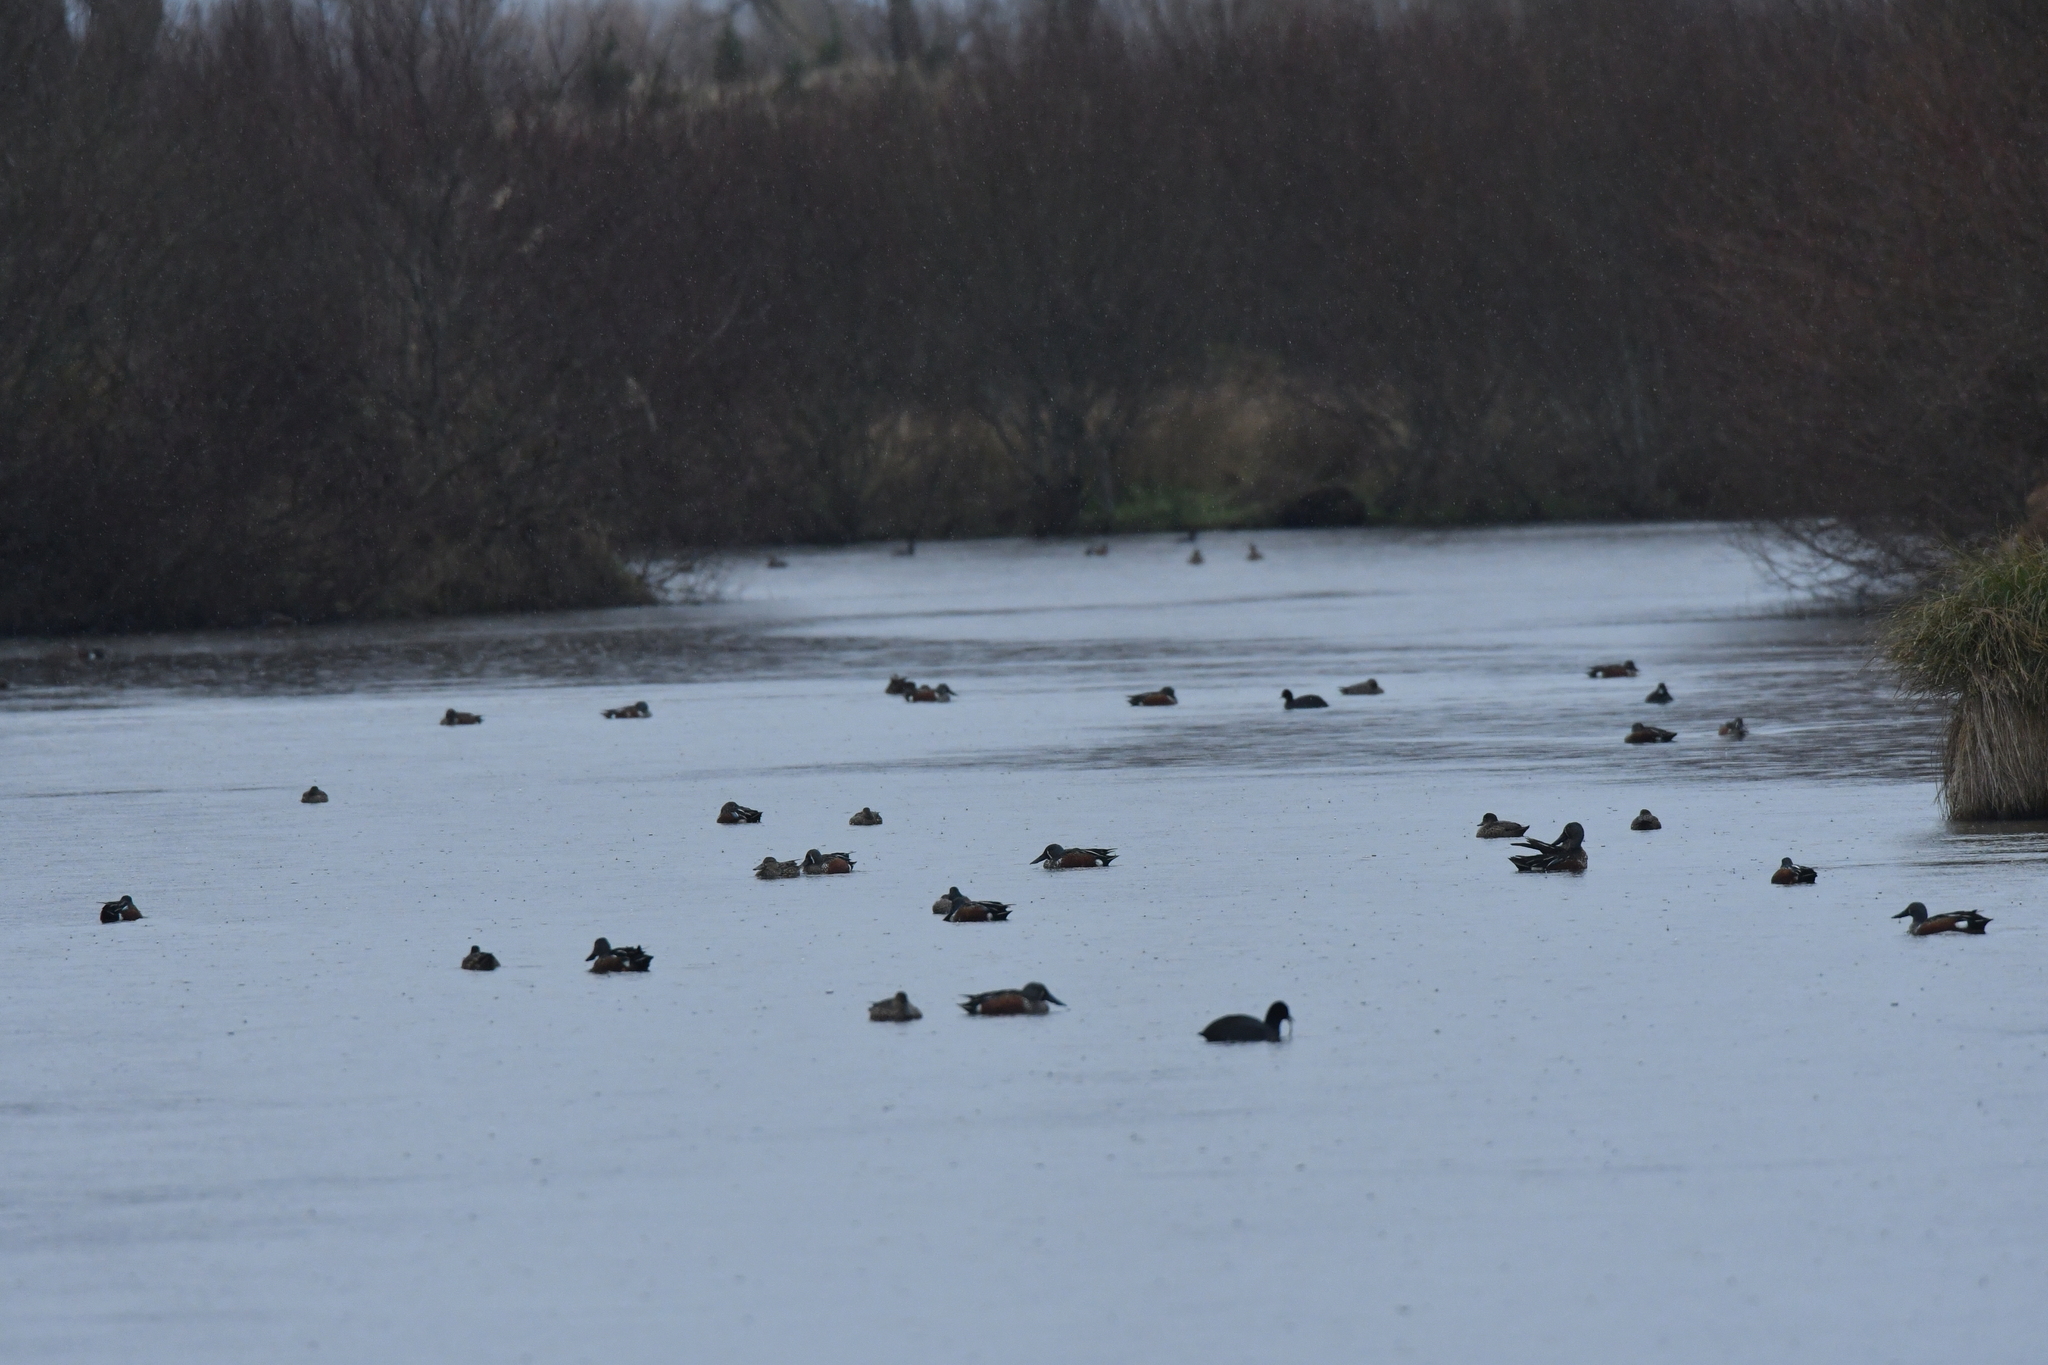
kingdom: Animalia
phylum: Chordata
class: Aves
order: Anseriformes
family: Anatidae
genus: Spatula
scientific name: Spatula rhynchotis
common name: Australian shoveler
